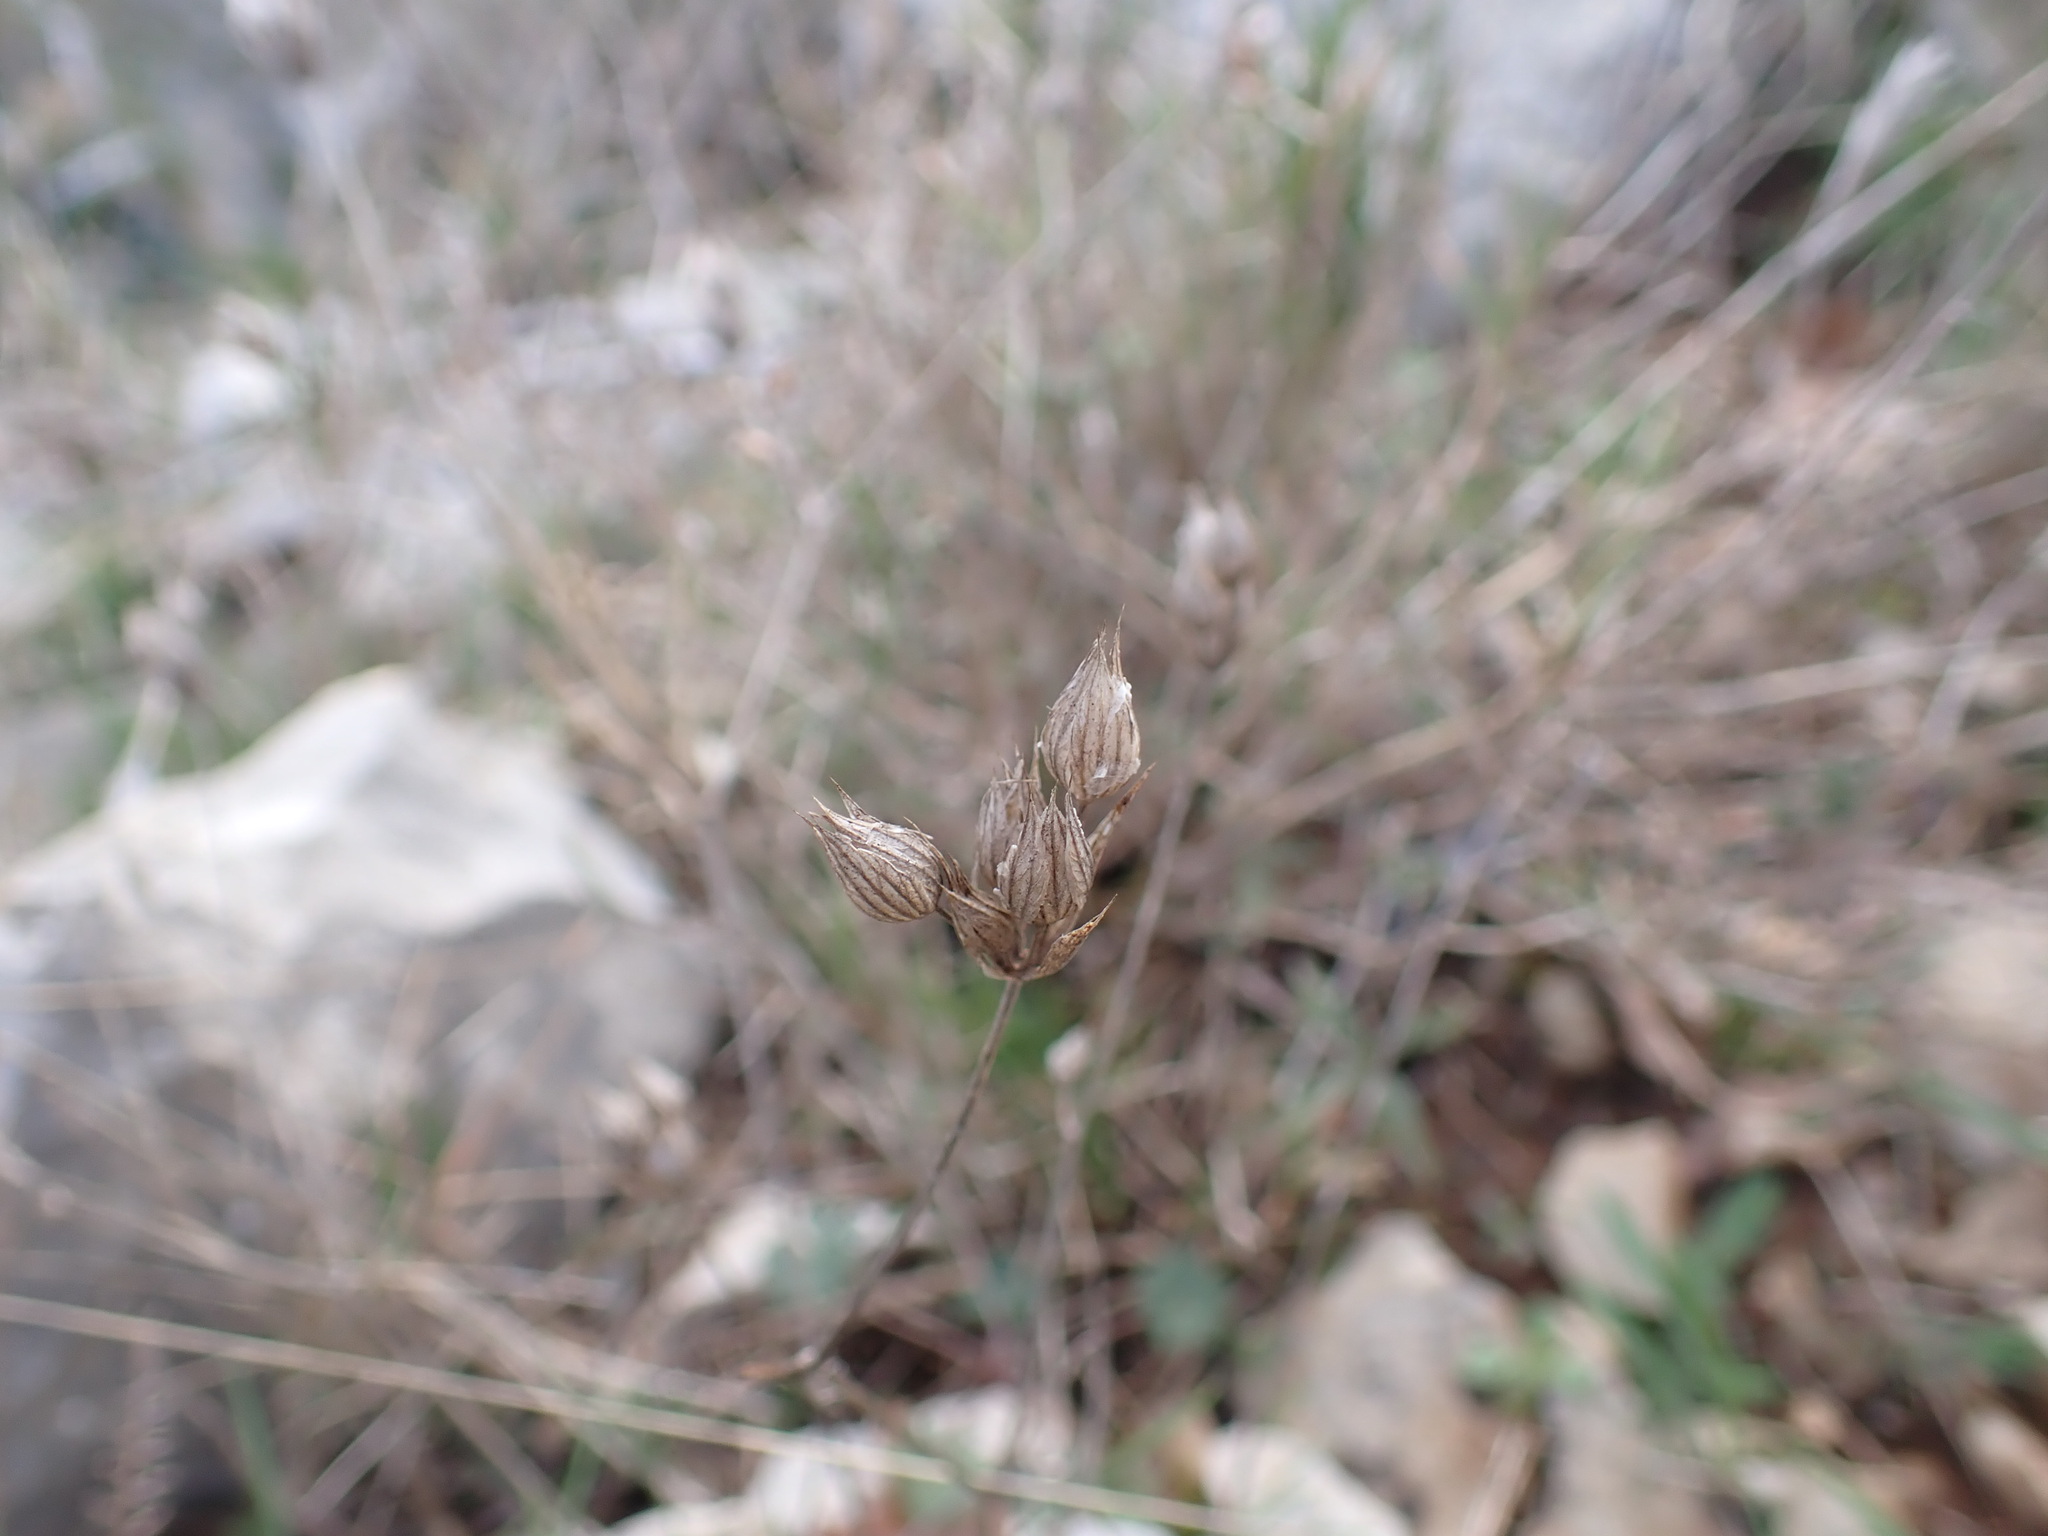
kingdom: Plantae
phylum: Tracheophyta
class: Magnoliopsida
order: Apiales
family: Apiaceae
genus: Bupleurum
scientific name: Bupleurum baldense
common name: Small hare's-ear
